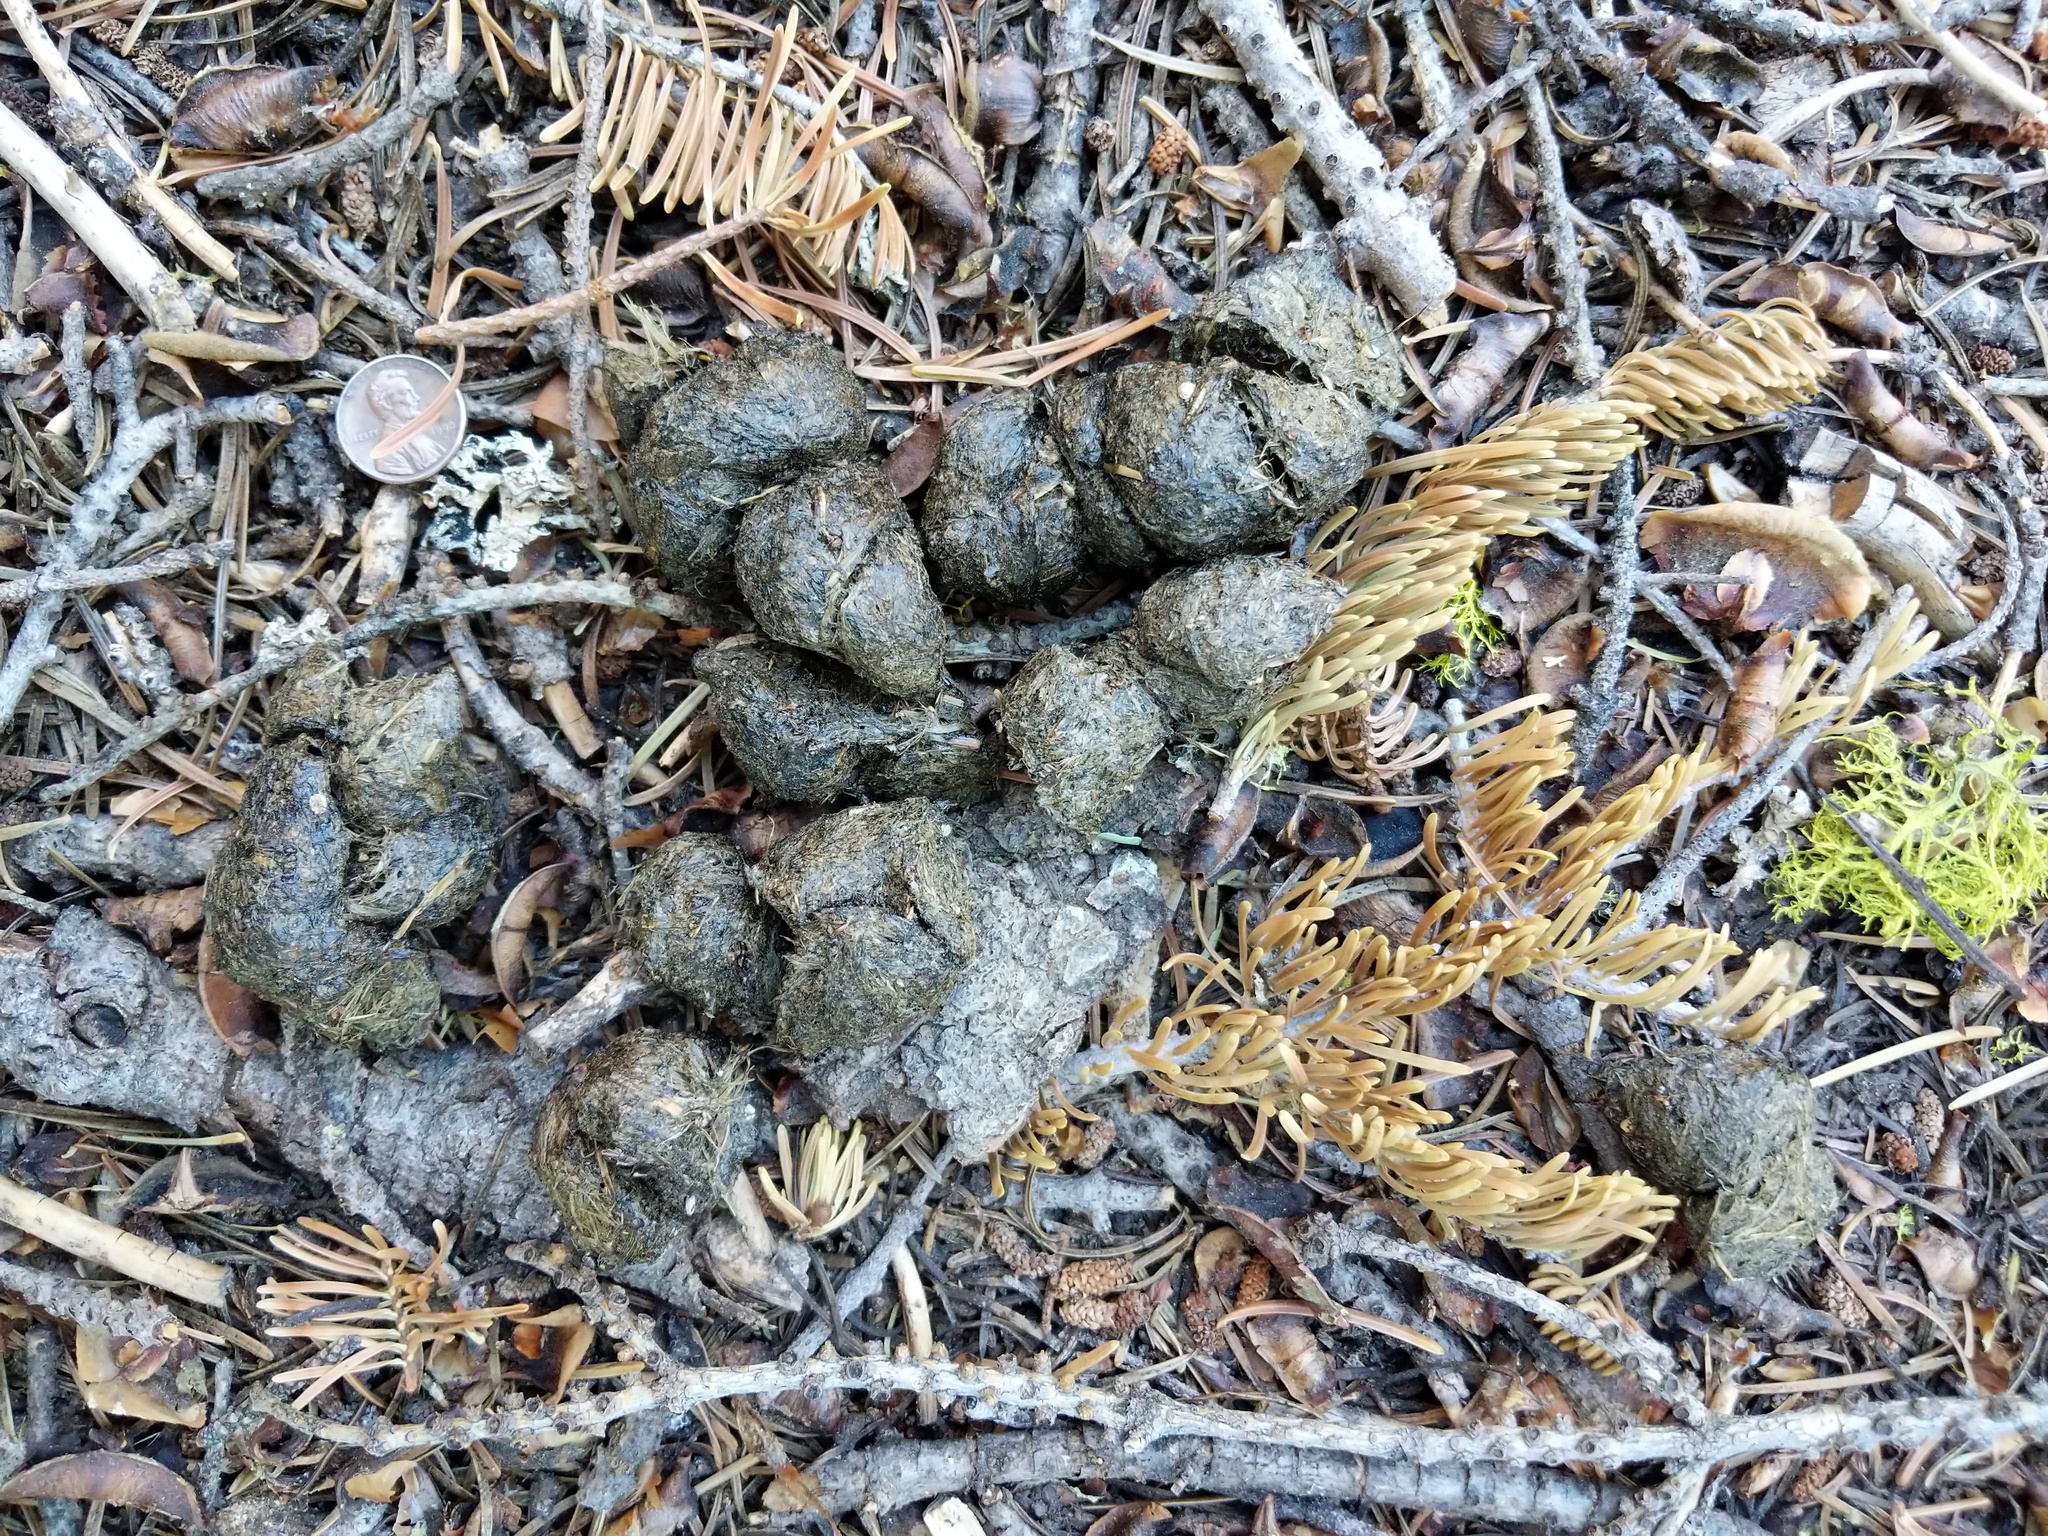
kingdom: Animalia
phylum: Chordata
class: Mammalia
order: Carnivora
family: Ursidae
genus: Ursus
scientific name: Ursus americanus
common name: American black bear
